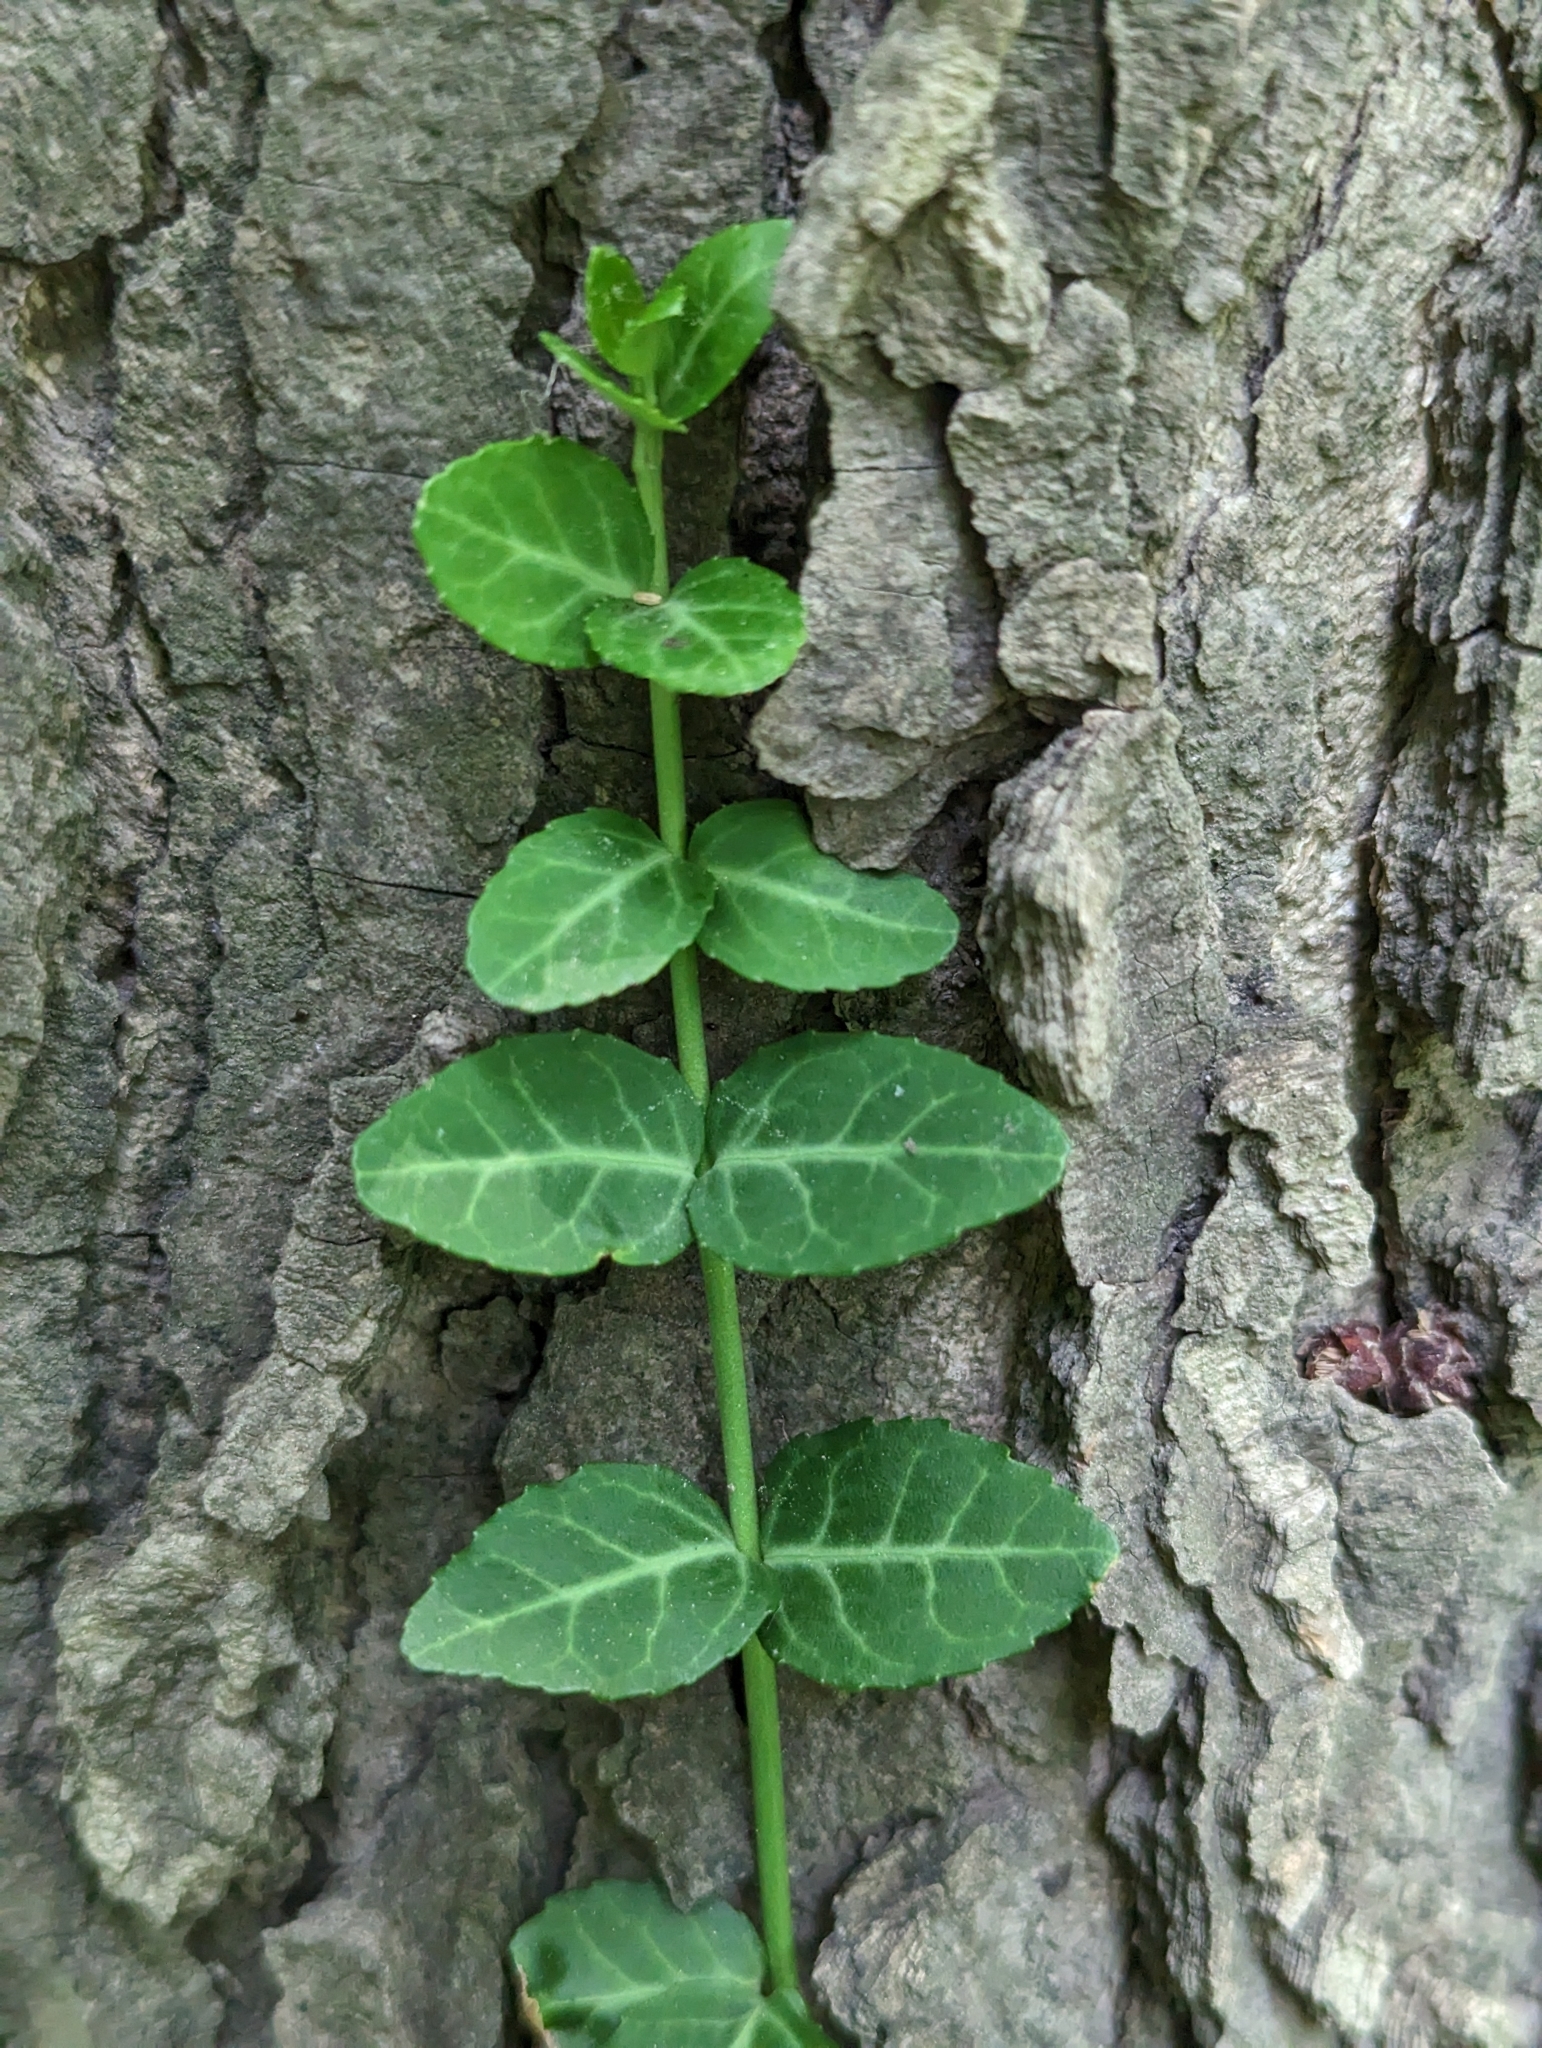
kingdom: Plantae
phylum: Tracheophyta
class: Magnoliopsida
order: Celastrales
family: Celastraceae
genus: Euonymus
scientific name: Euonymus fortunei
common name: Climbing euonymus
